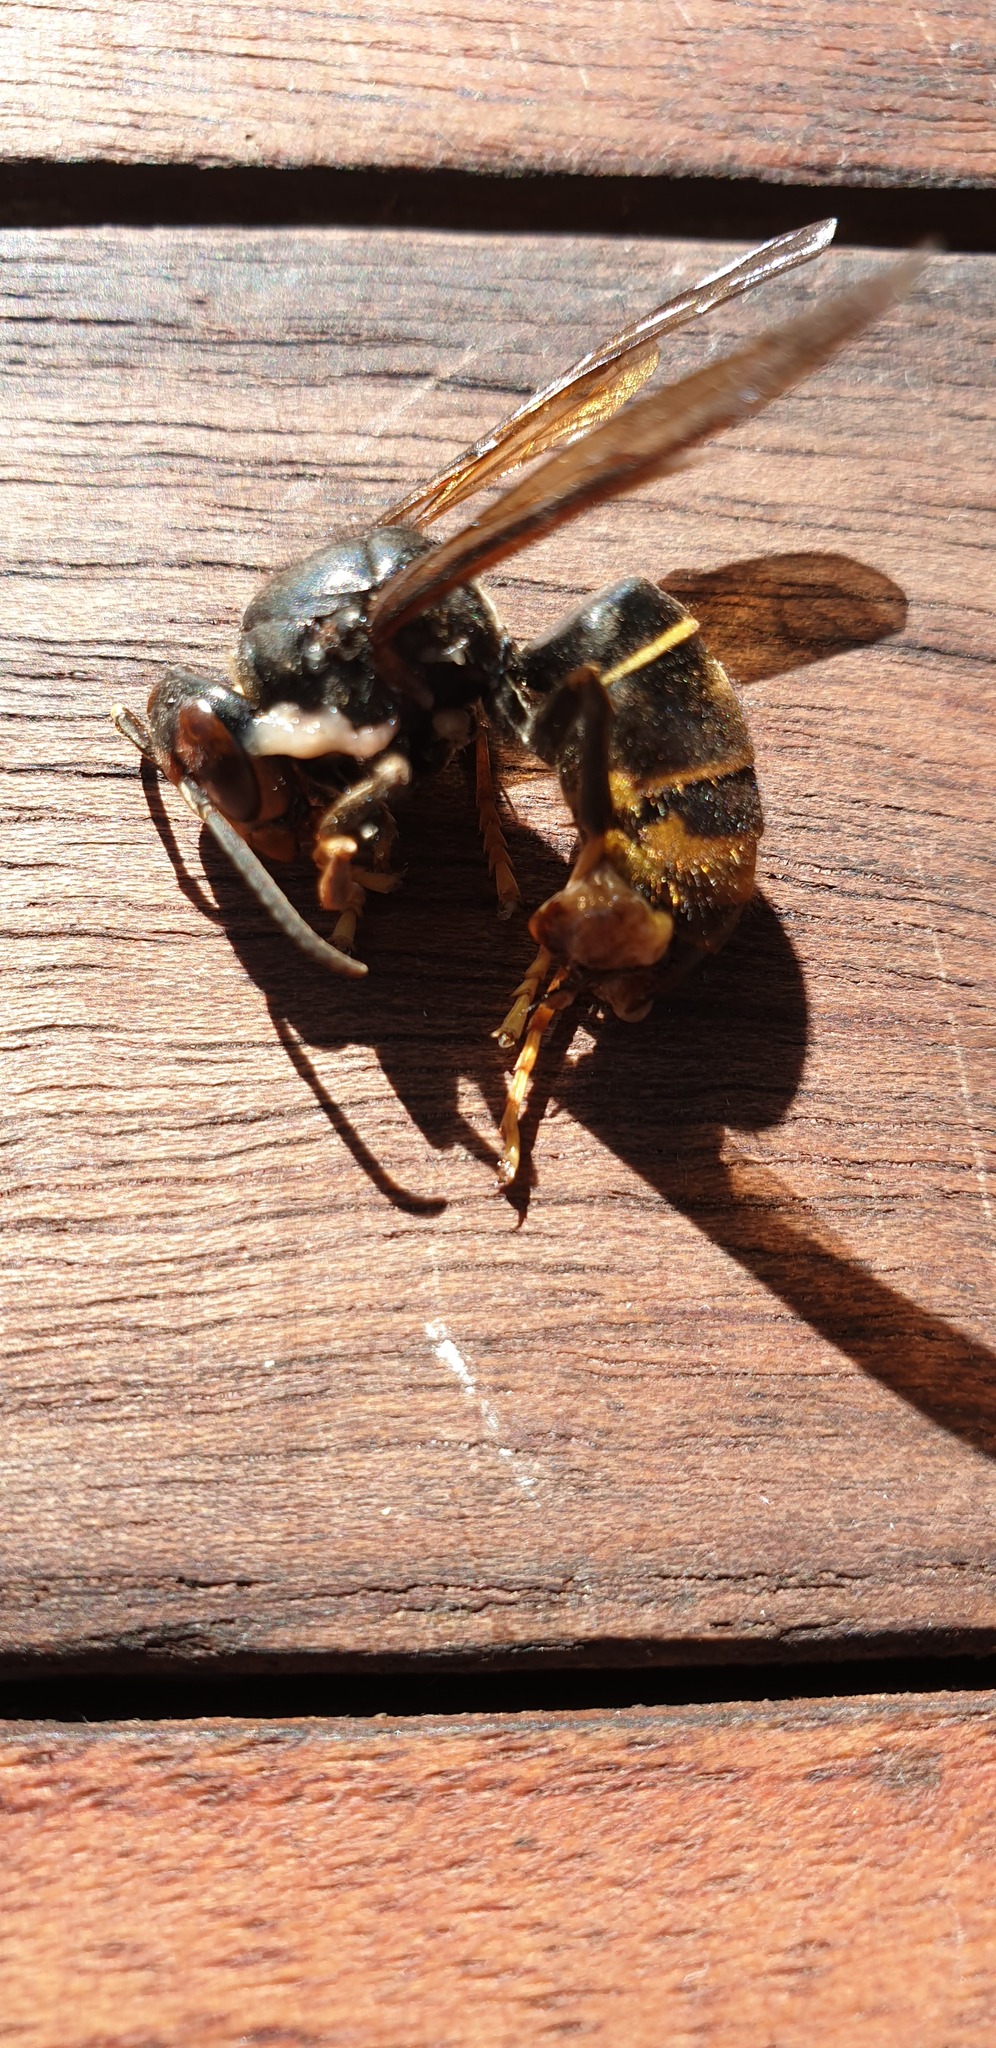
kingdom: Animalia
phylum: Arthropoda
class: Insecta
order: Hymenoptera
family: Vespidae
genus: Vespa
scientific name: Vespa velutina
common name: Asian hornet
